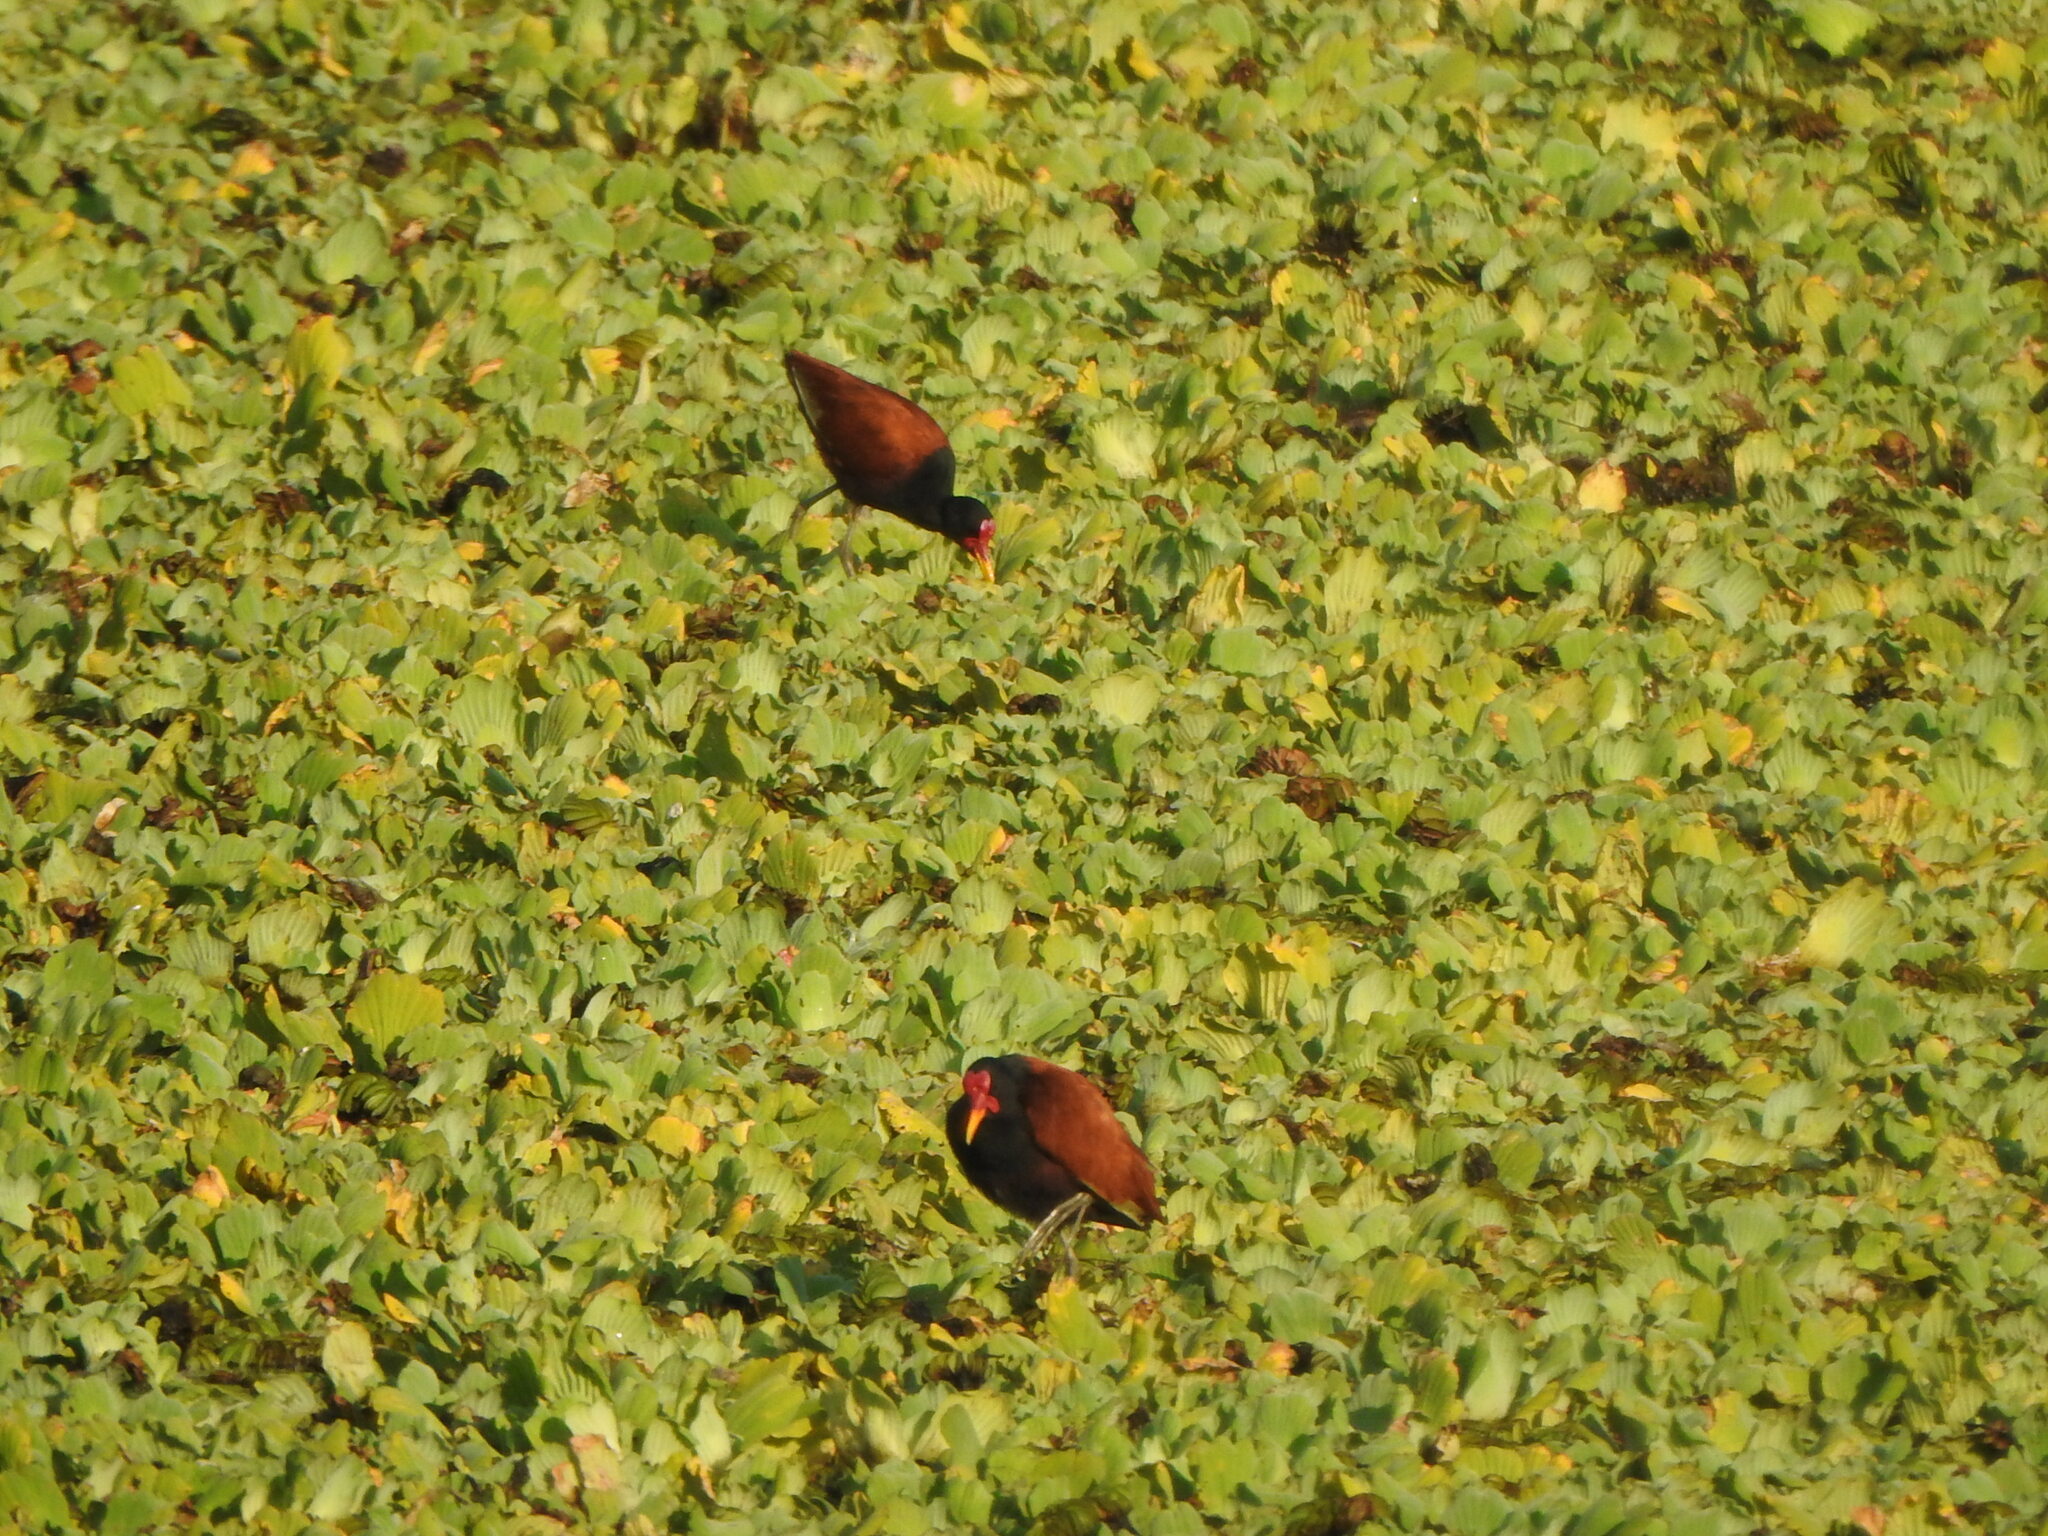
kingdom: Animalia
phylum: Chordata
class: Aves
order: Charadriiformes
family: Jacanidae
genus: Jacana
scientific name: Jacana jacana
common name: Wattled jacana
